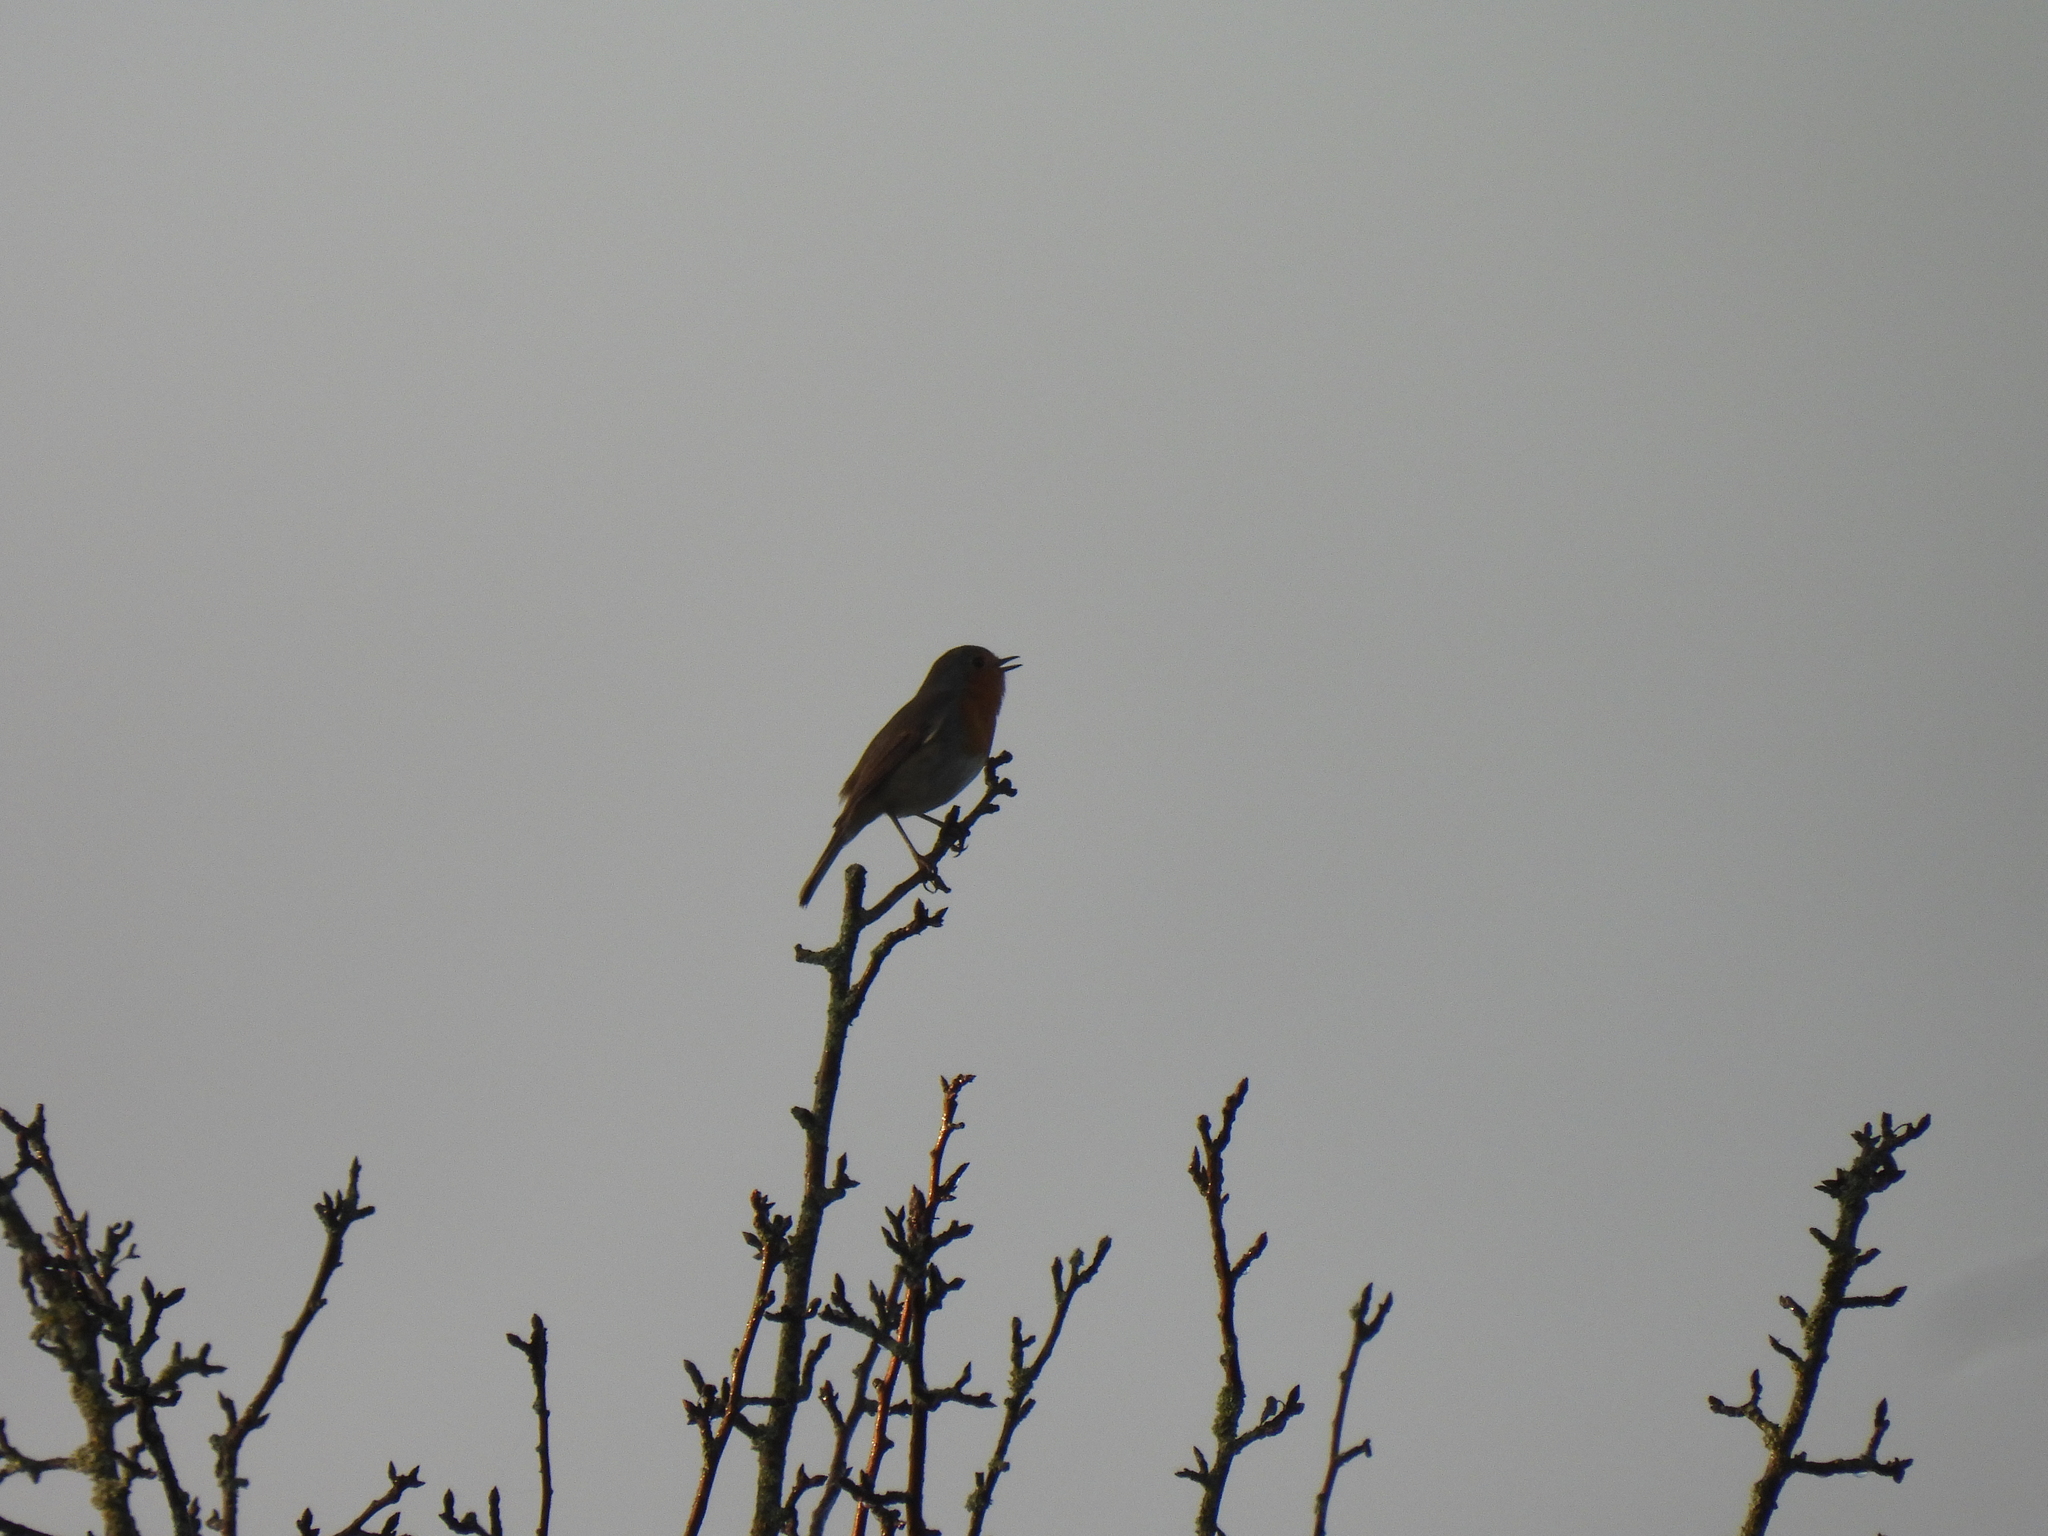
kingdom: Animalia
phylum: Chordata
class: Aves
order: Passeriformes
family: Muscicapidae
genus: Erithacus
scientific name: Erithacus rubecula
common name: European robin
